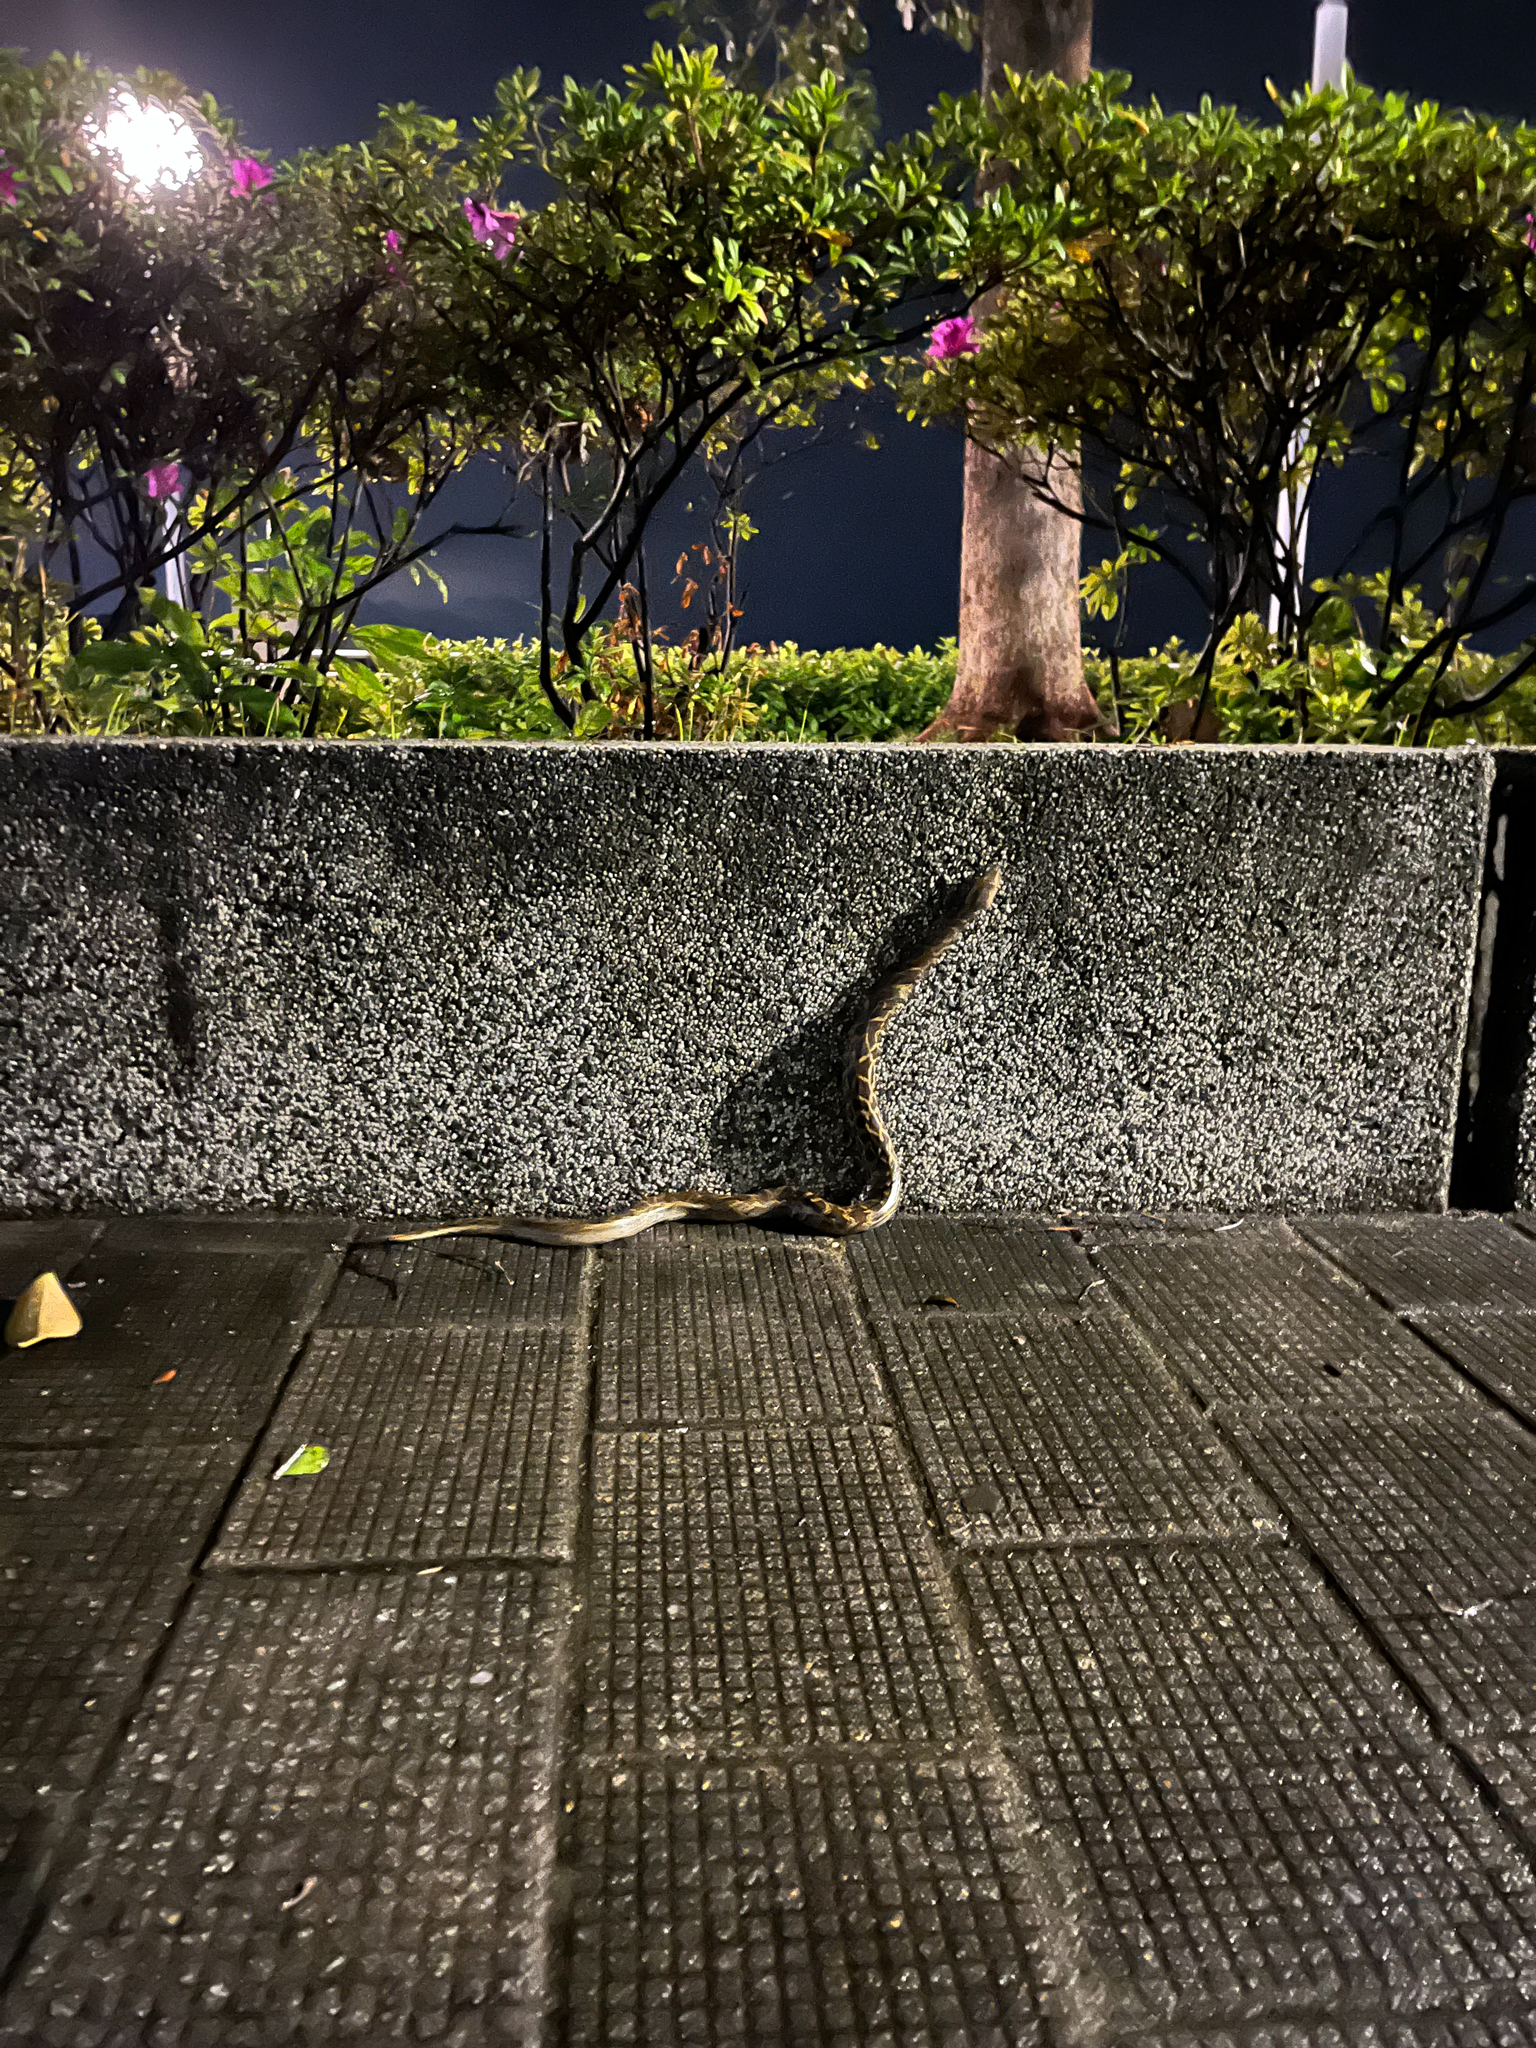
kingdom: Animalia
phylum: Chordata
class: Squamata
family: Pythonidae
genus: Python
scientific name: Python bivittatus
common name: Burmese python
